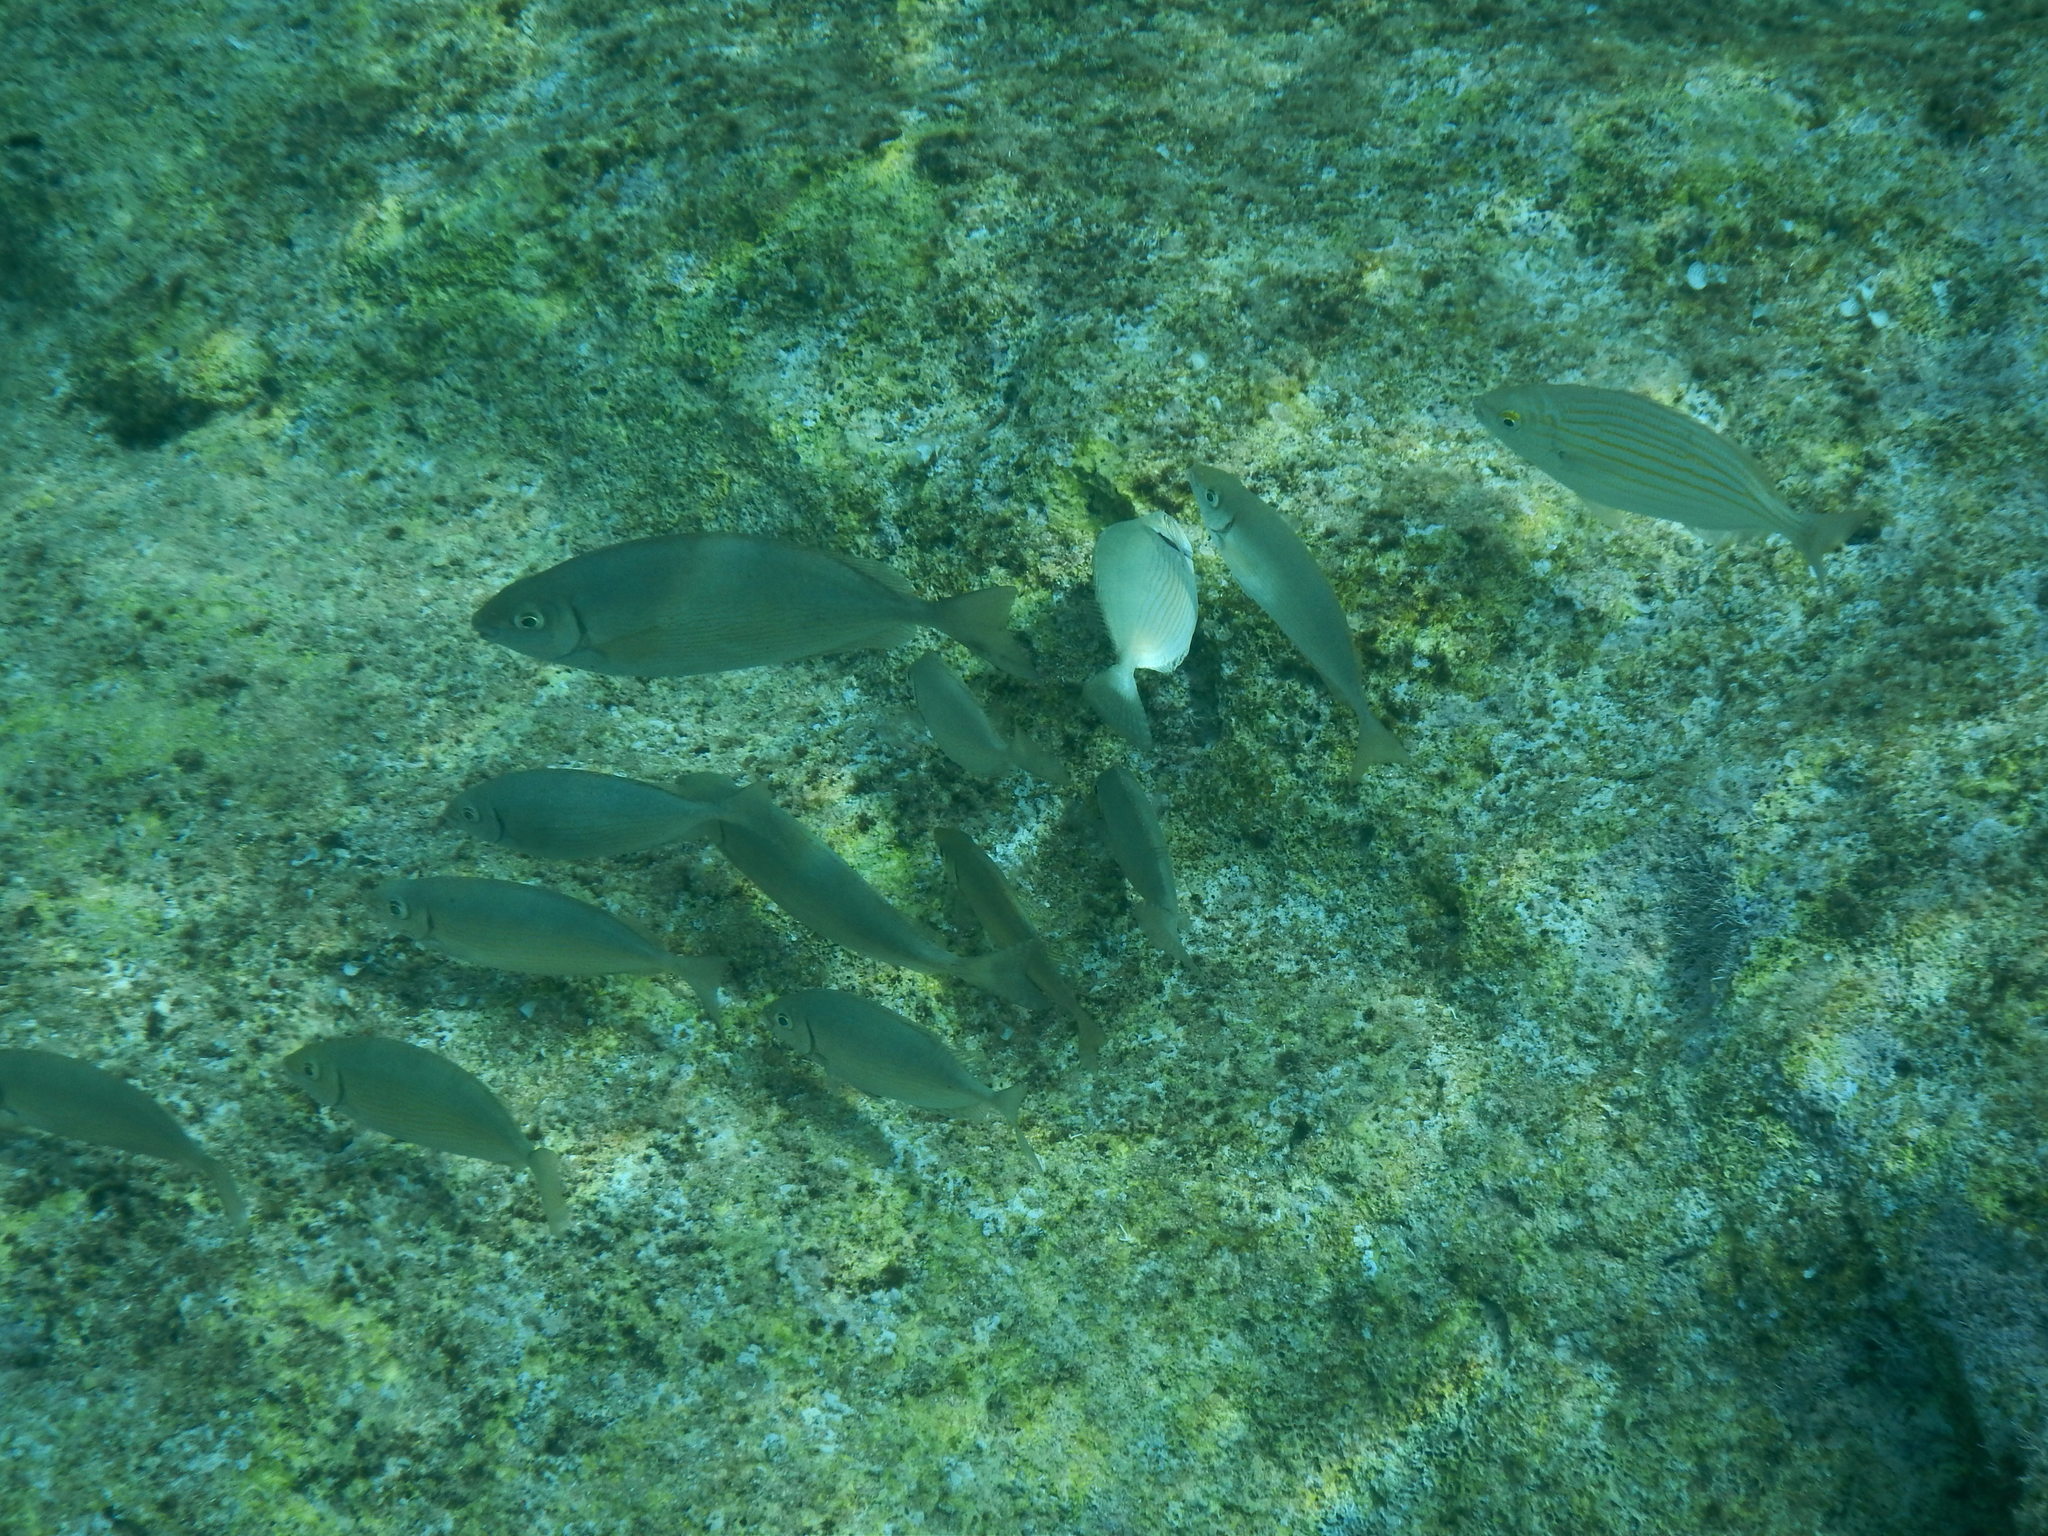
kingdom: Animalia
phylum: Chordata
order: Perciformes
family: Siganidae
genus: Siganus
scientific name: Siganus rivulatus
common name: Marbled spinefoot
